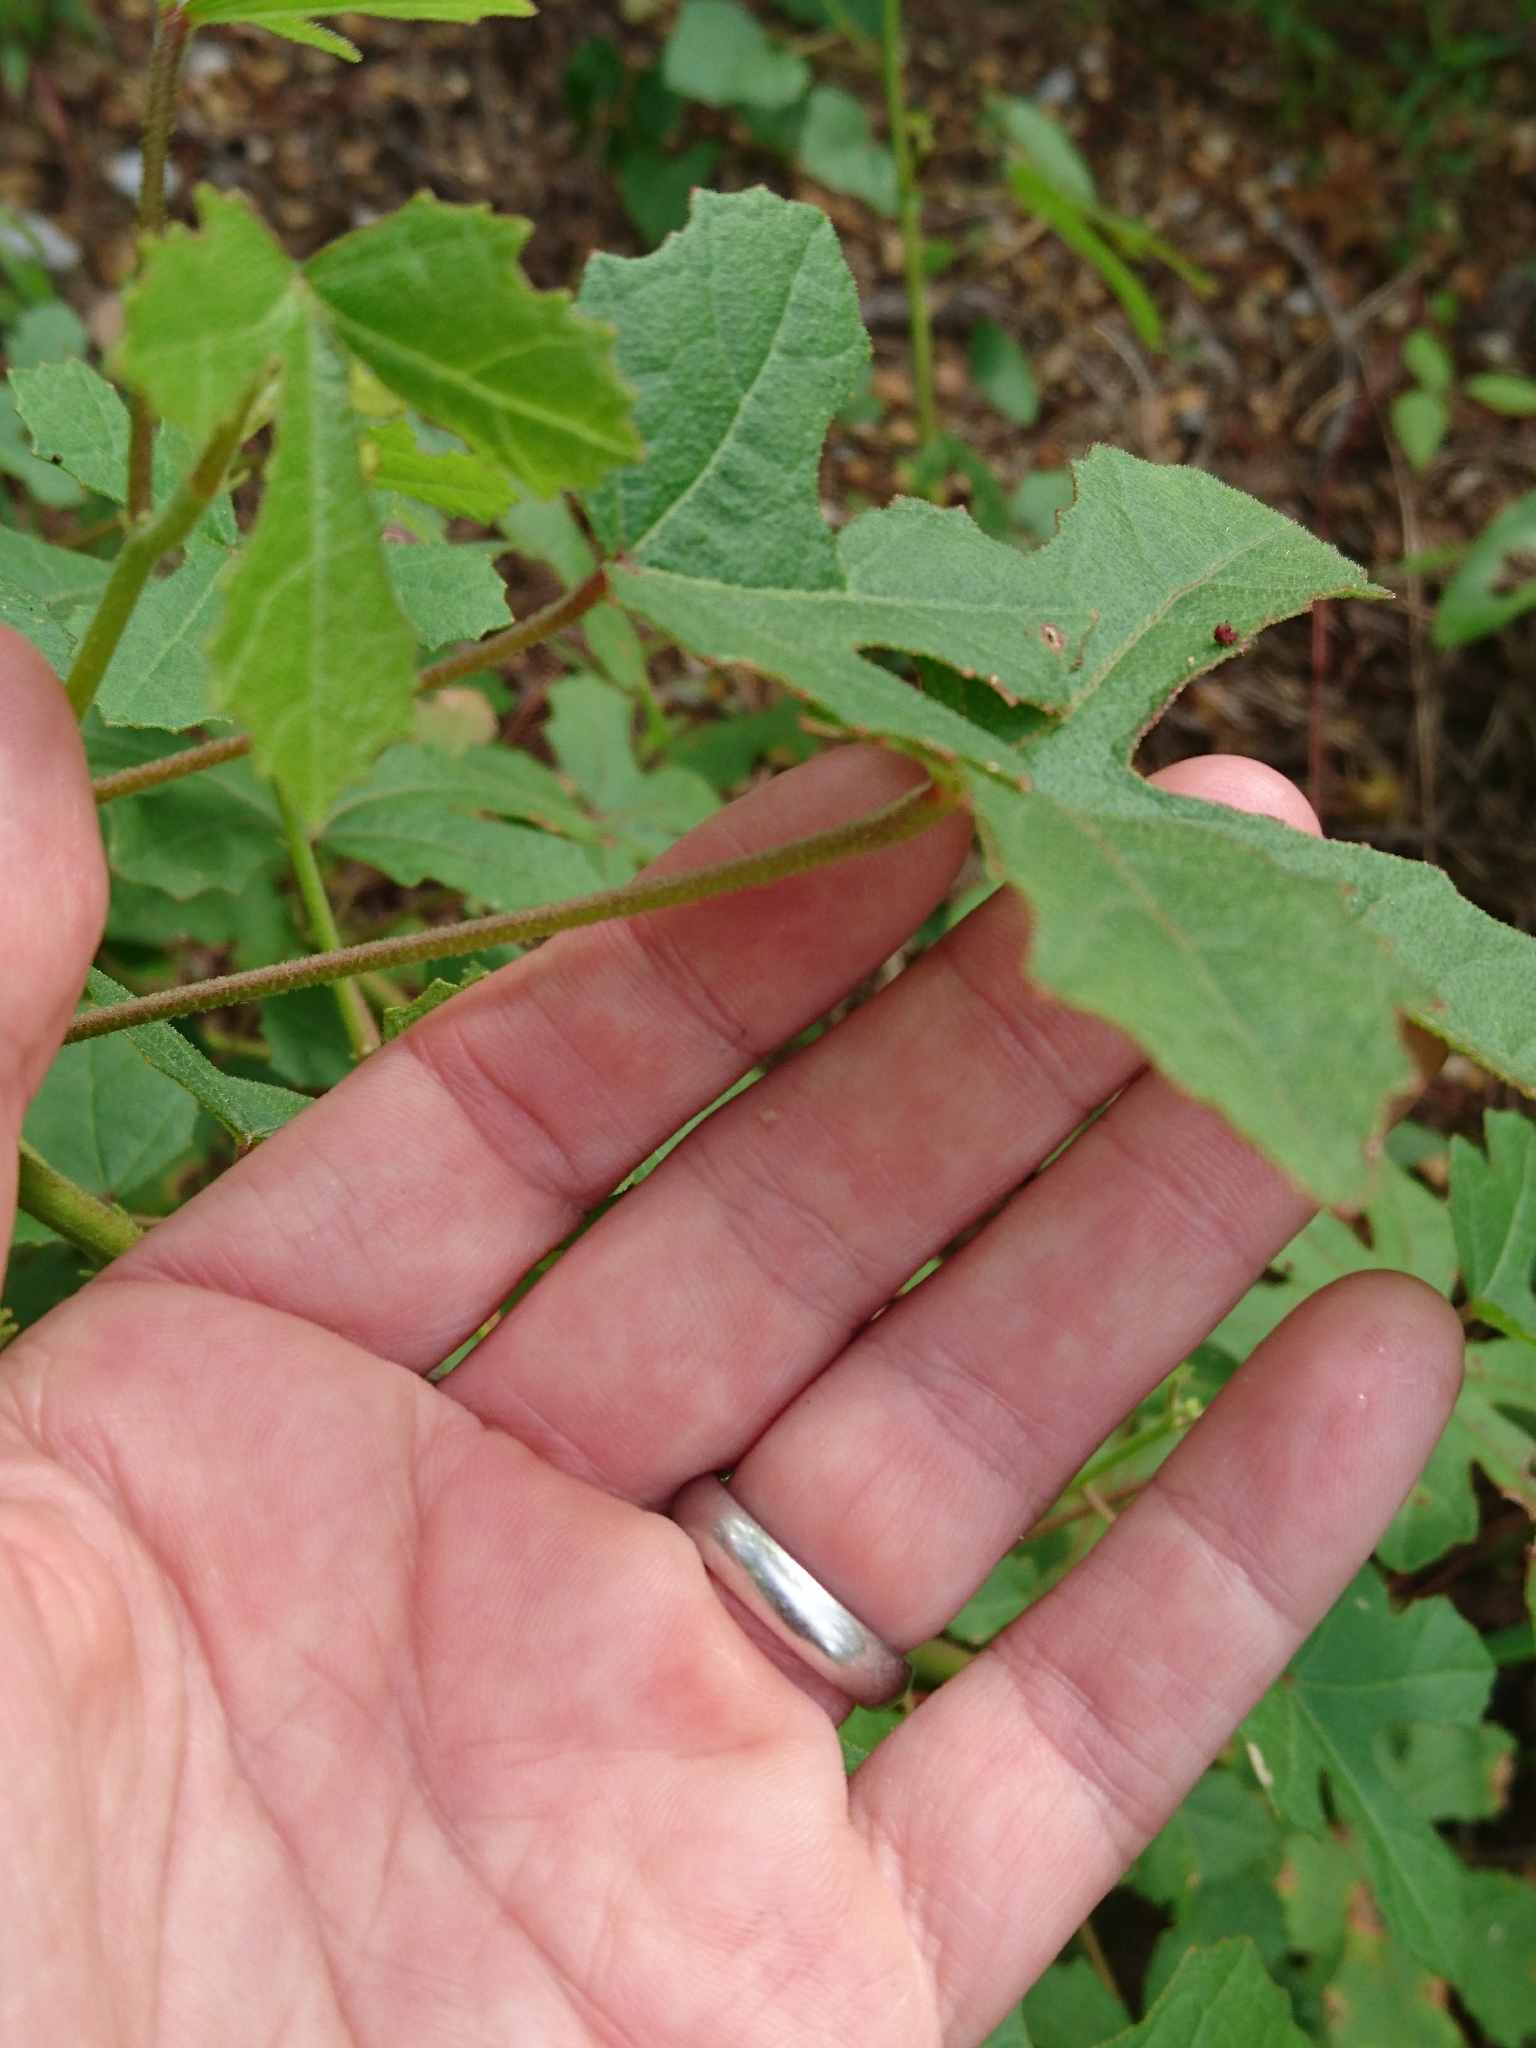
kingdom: Plantae
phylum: Tracheophyta
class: Magnoliopsida
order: Malvales
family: Malvaceae
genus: Hibiscus
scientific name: Hibiscus aculeatus
